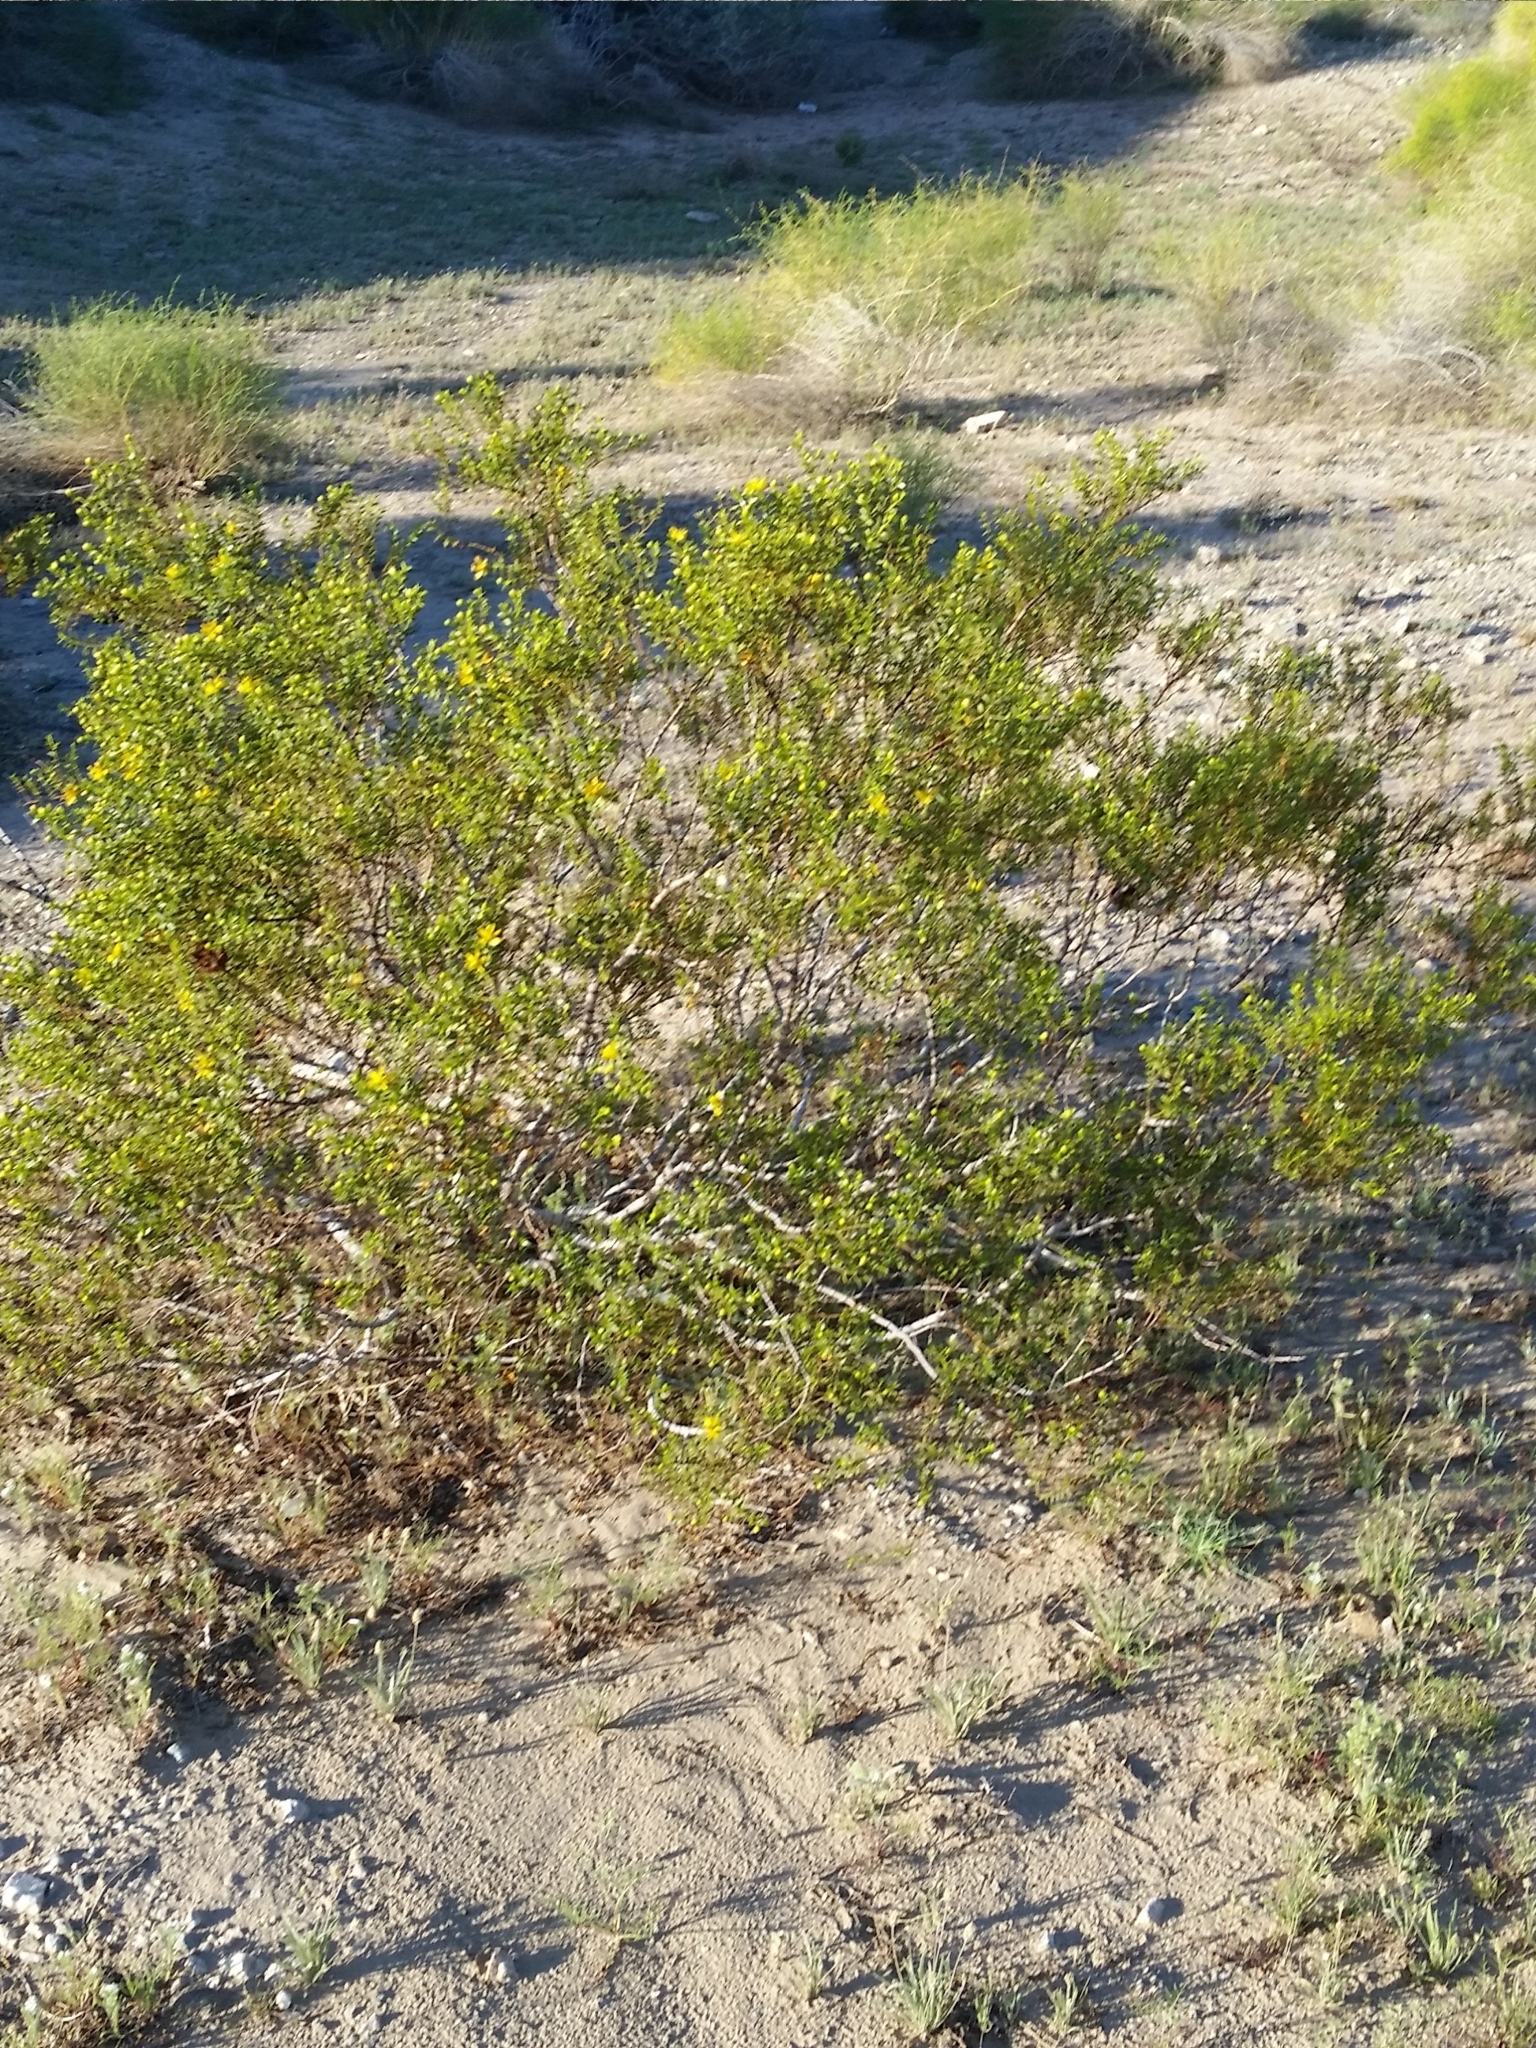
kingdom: Plantae
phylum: Tracheophyta
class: Magnoliopsida
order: Zygophyllales
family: Zygophyllaceae
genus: Larrea
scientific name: Larrea tridentata
